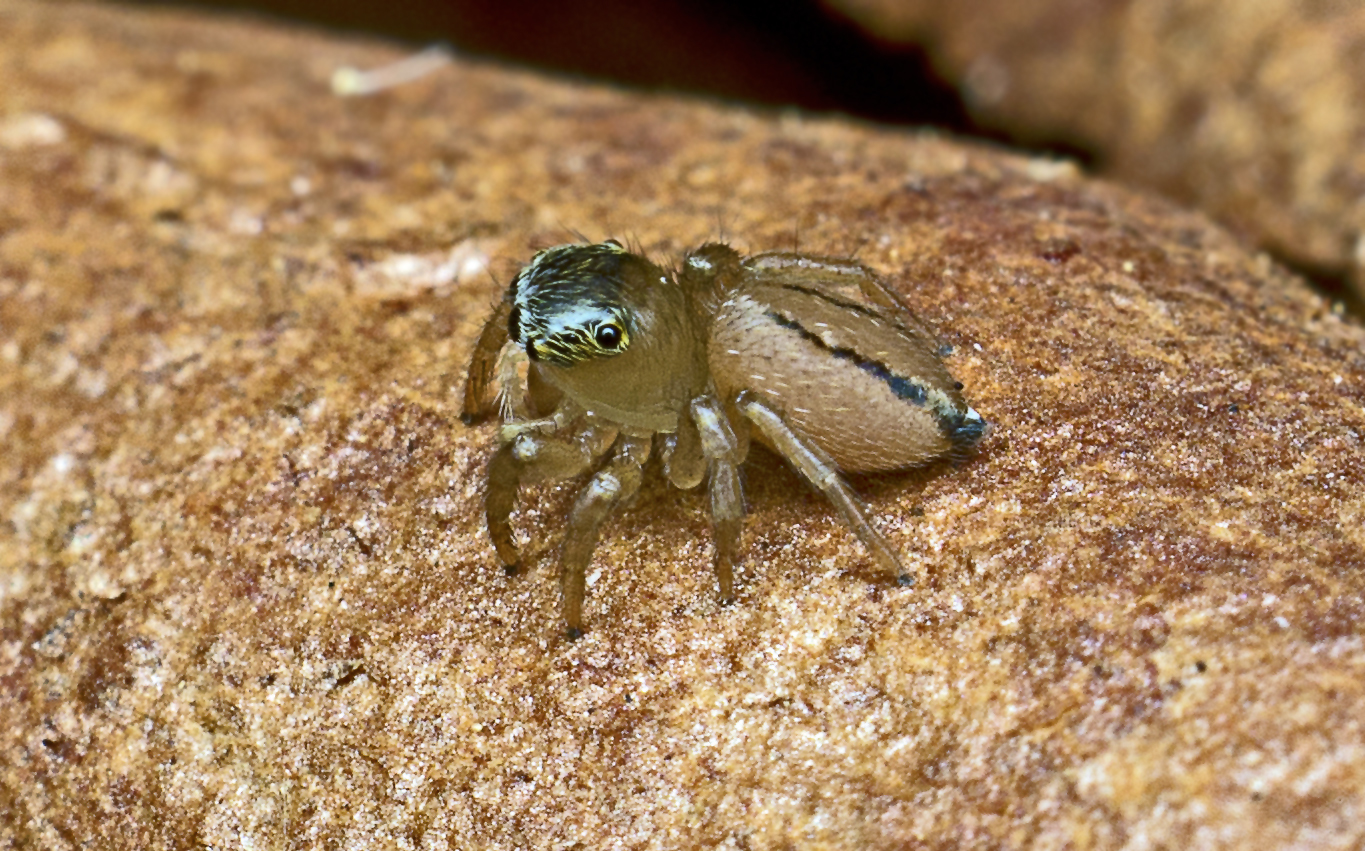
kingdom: Animalia
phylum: Arthropoda
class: Arachnida
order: Araneae
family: Salticidae
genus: Maratus
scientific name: Maratus scutulatus
